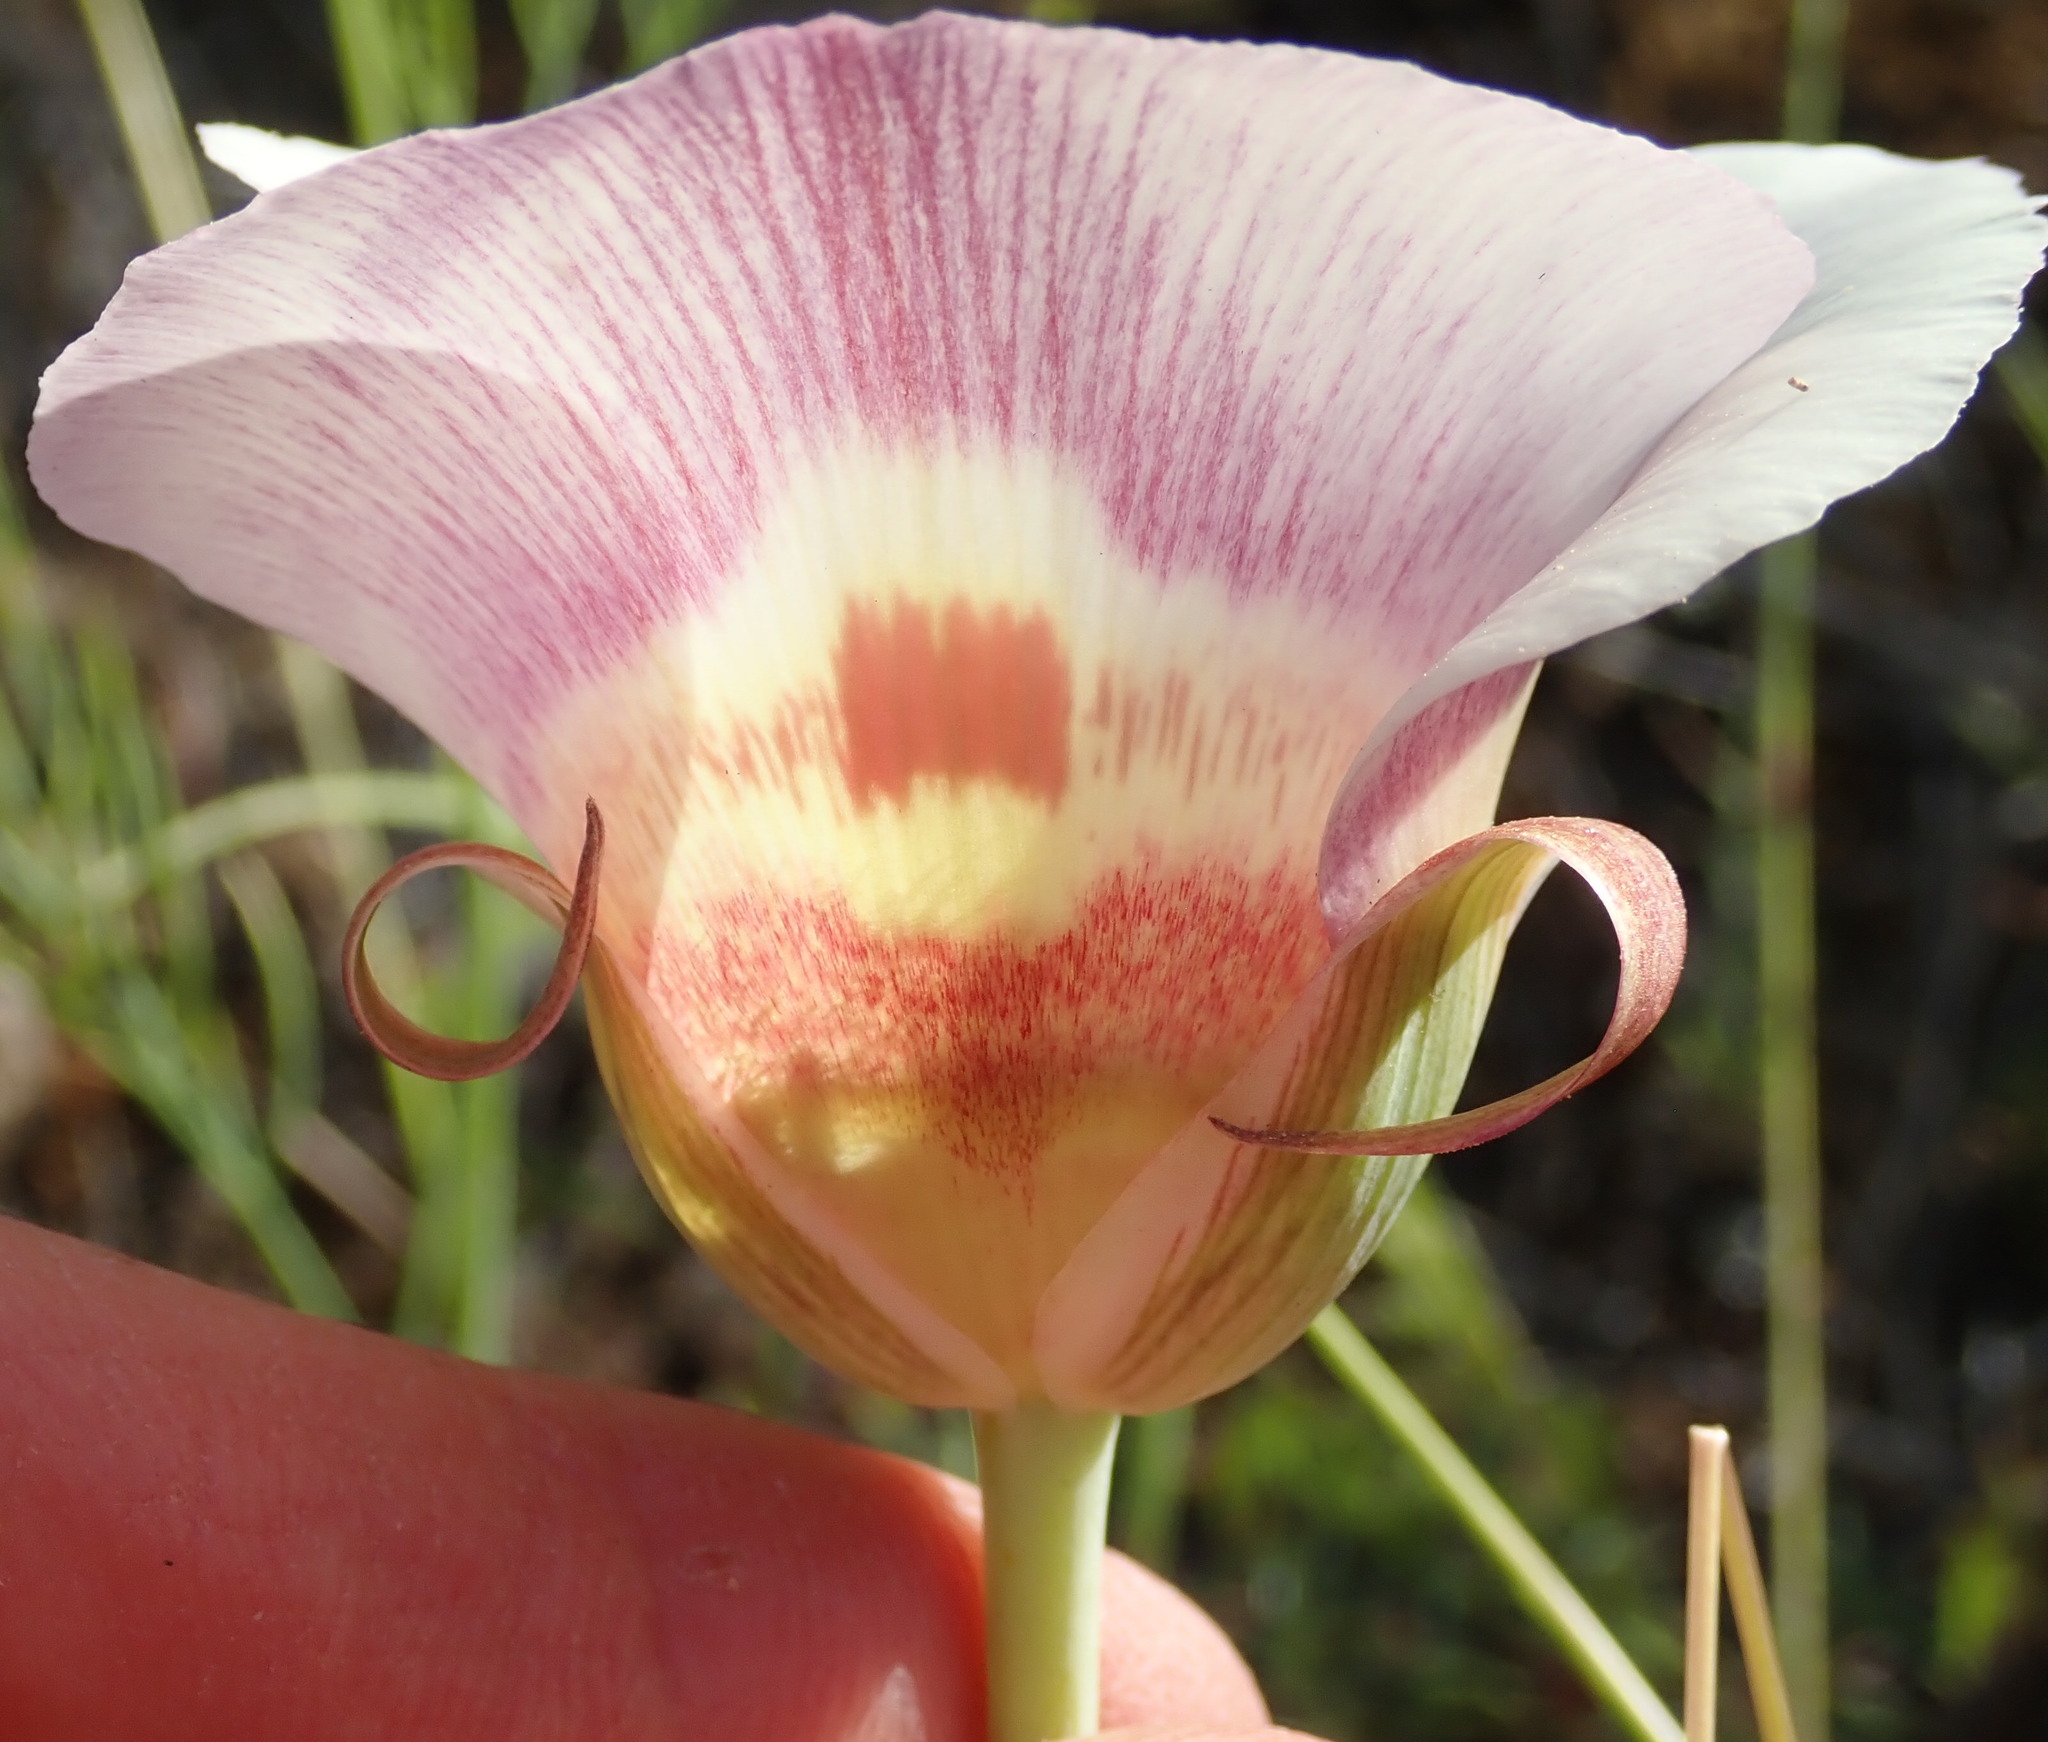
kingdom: Plantae
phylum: Tracheophyta
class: Liliopsida
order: Liliales
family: Liliaceae
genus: Calochortus
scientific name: Calochortus vestae
